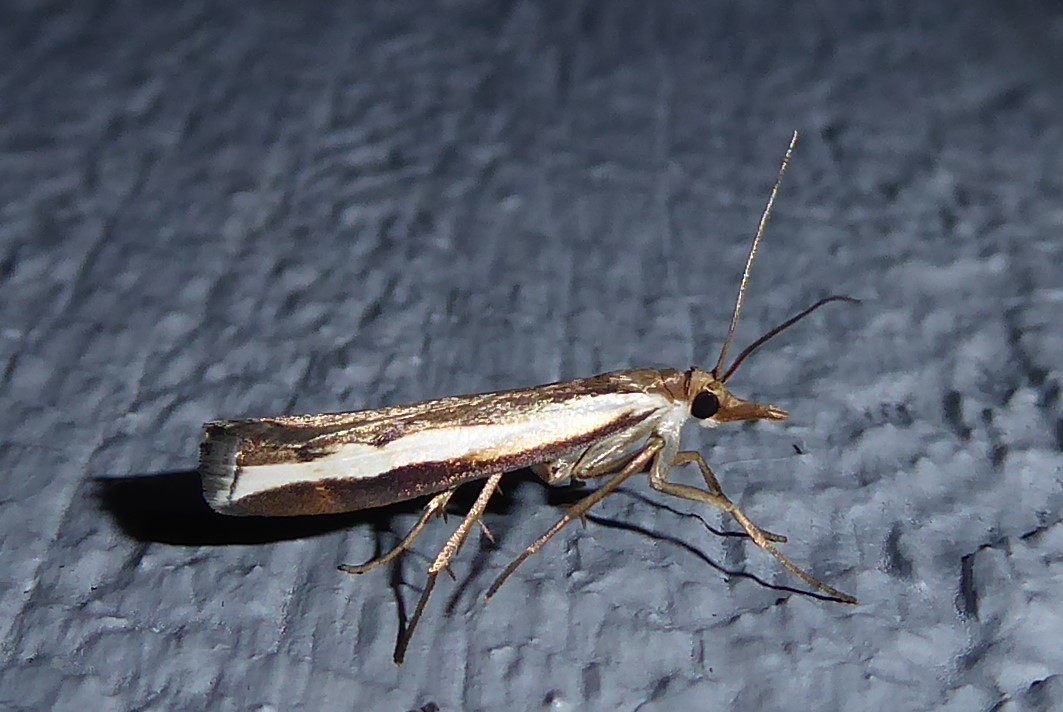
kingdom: Animalia
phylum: Arthropoda
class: Insecta
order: Lepidoptera
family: Crambidae
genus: Orocrambus
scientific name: Orocrambus flexuosellus
